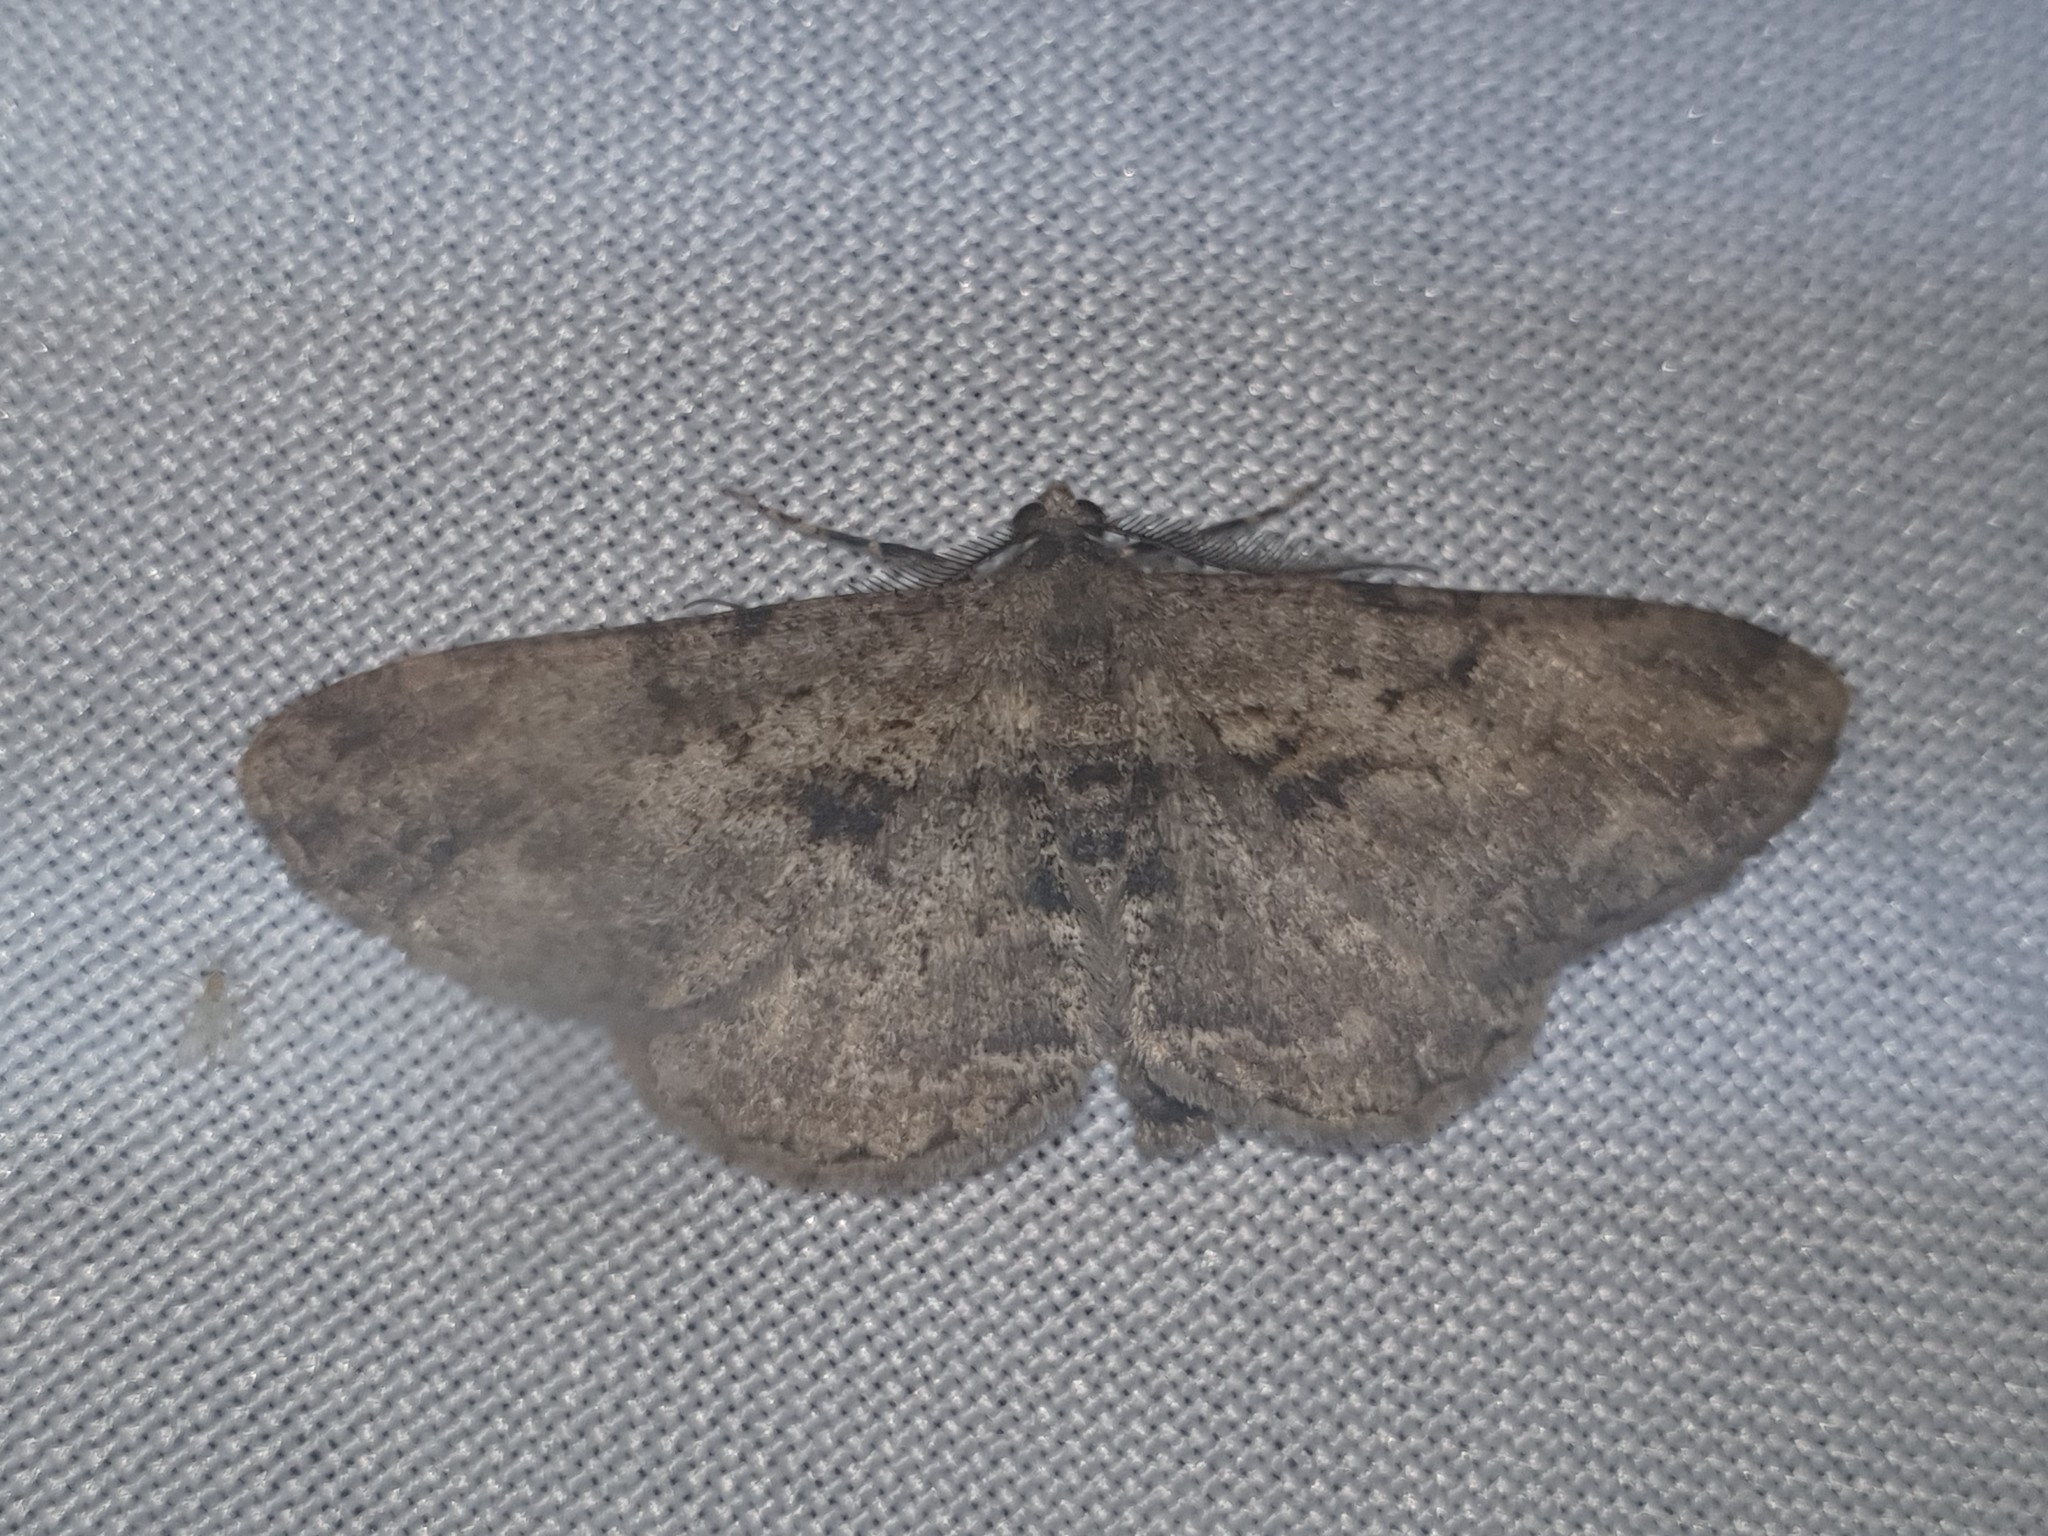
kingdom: Animalia
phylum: Arthropoda
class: Insecta
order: Lepidoptera
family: Geometridae
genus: Peribatodes
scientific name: Peribatodes rhomboidaria
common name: Willow beauty
